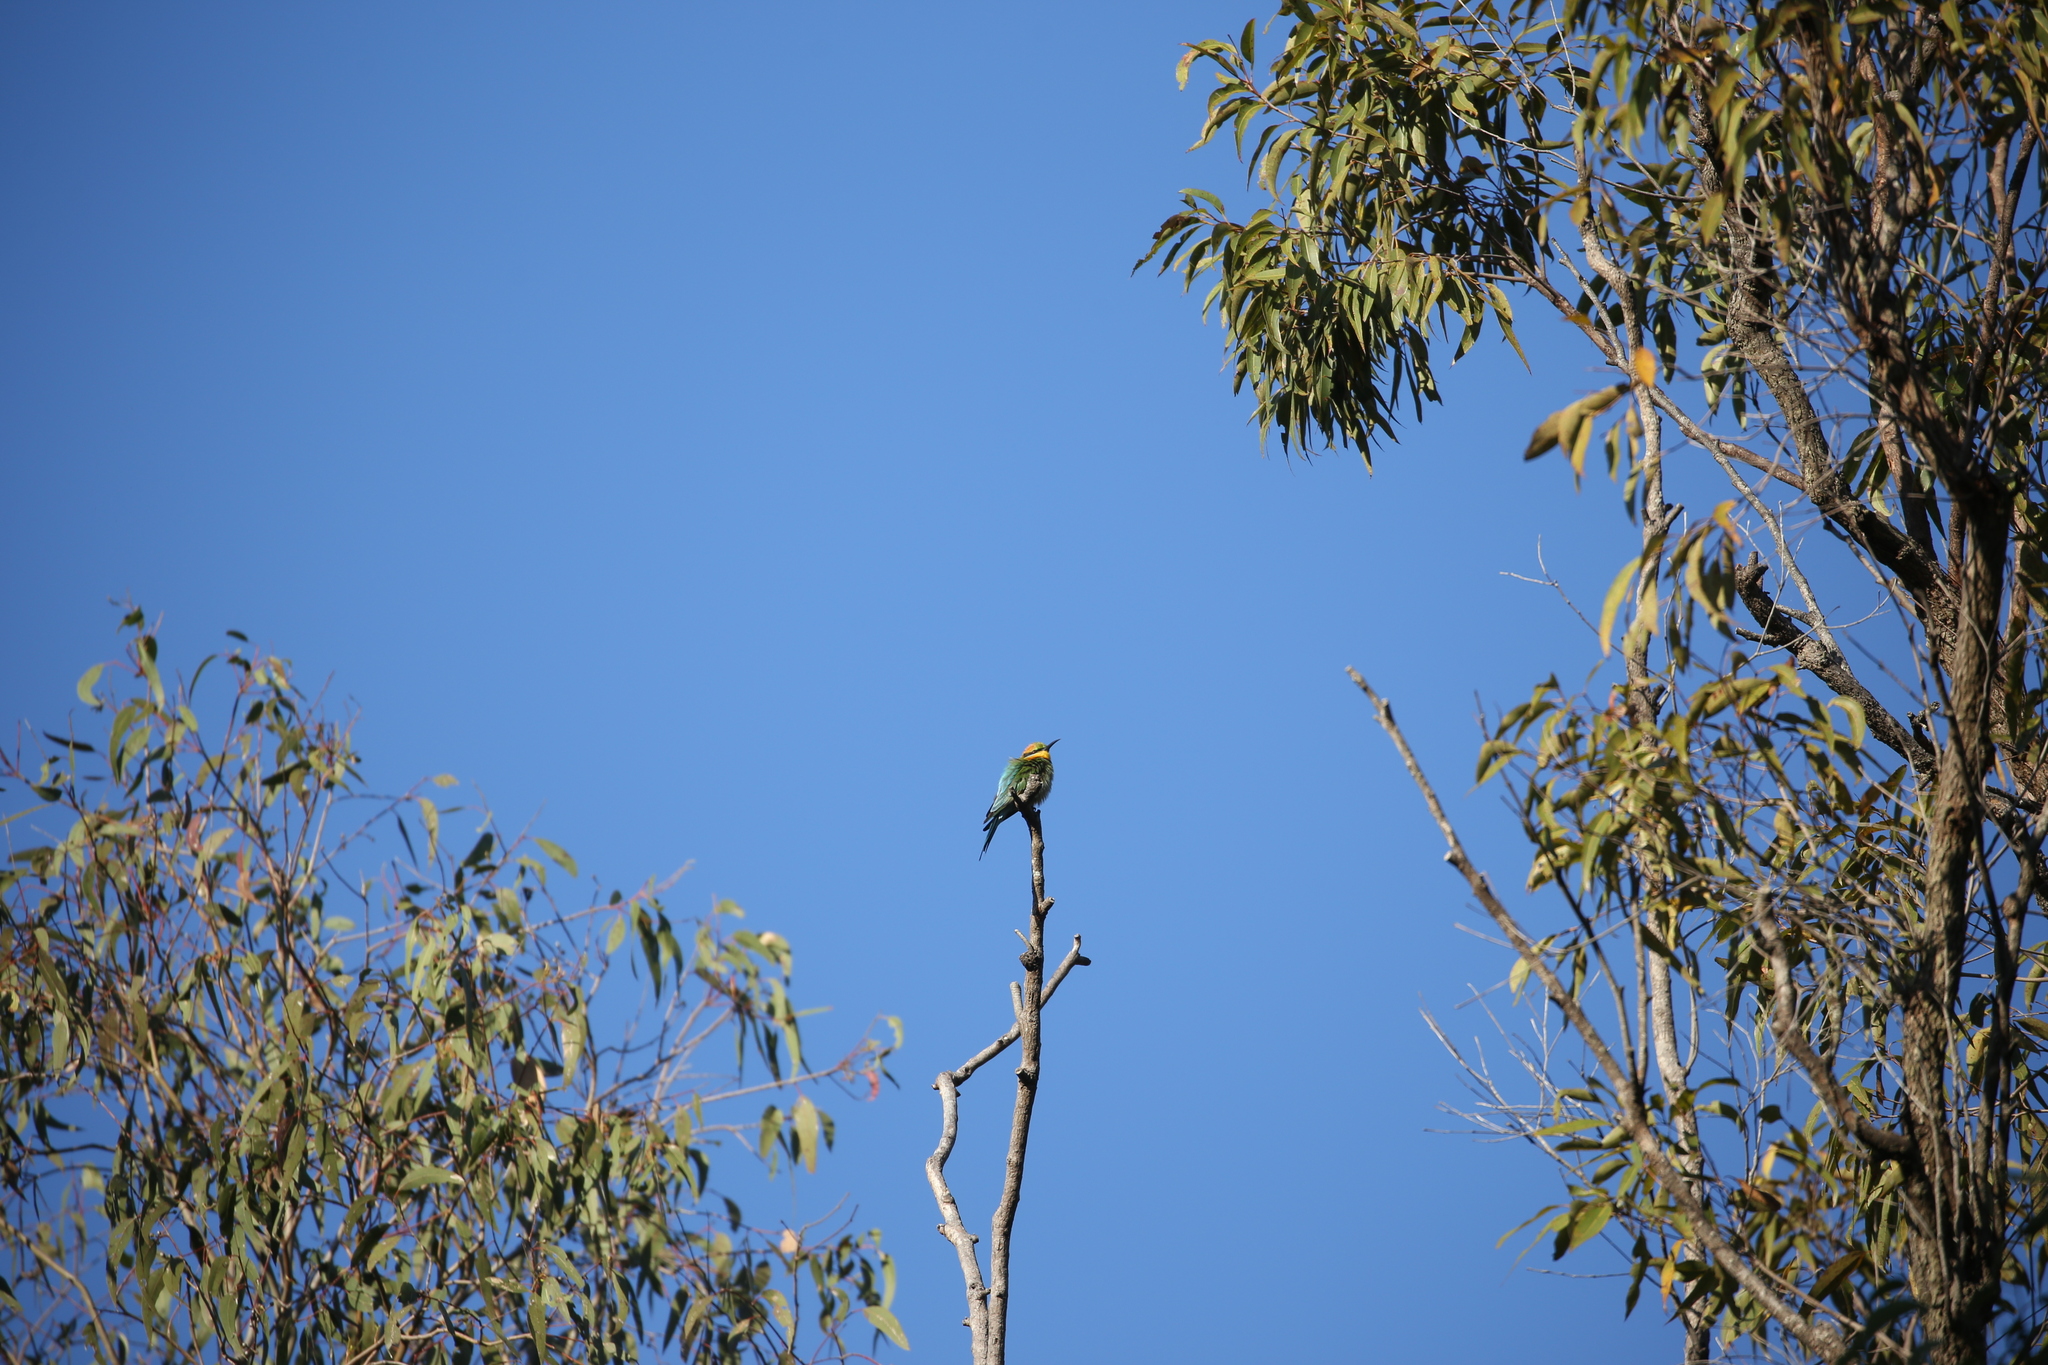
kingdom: Animalia
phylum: Chordata
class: Aves
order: Coraciiformes
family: Meropidae
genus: Merops
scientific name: Merops ornatus
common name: Rainbow bee-eater
